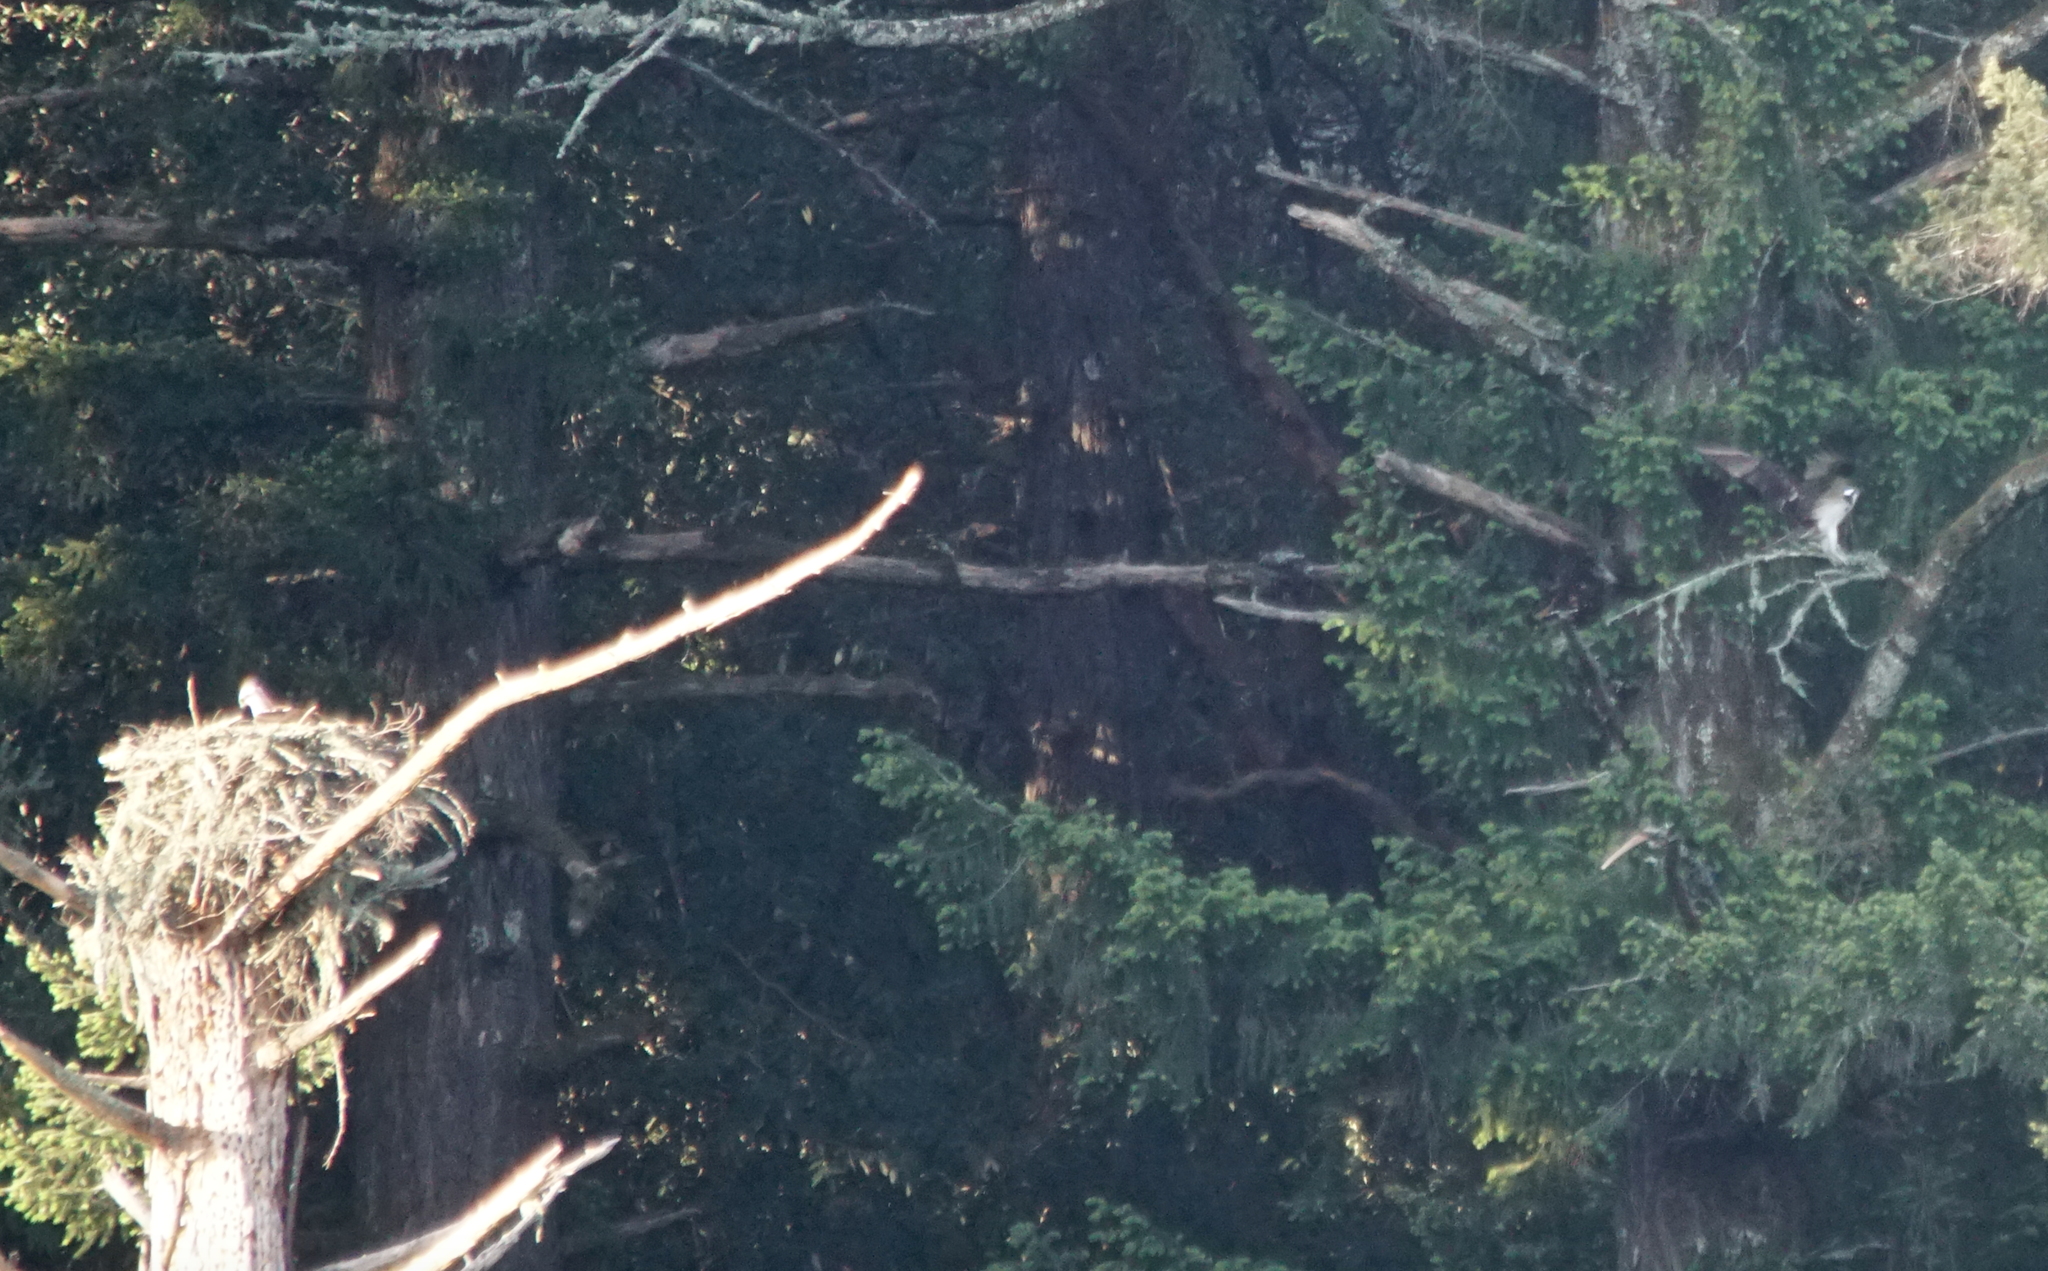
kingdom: Animalia
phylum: Chordata
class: Aves
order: Accipitriformes
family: Pandionidae
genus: Pandion
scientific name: Pandion haliaetus
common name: Osprey
